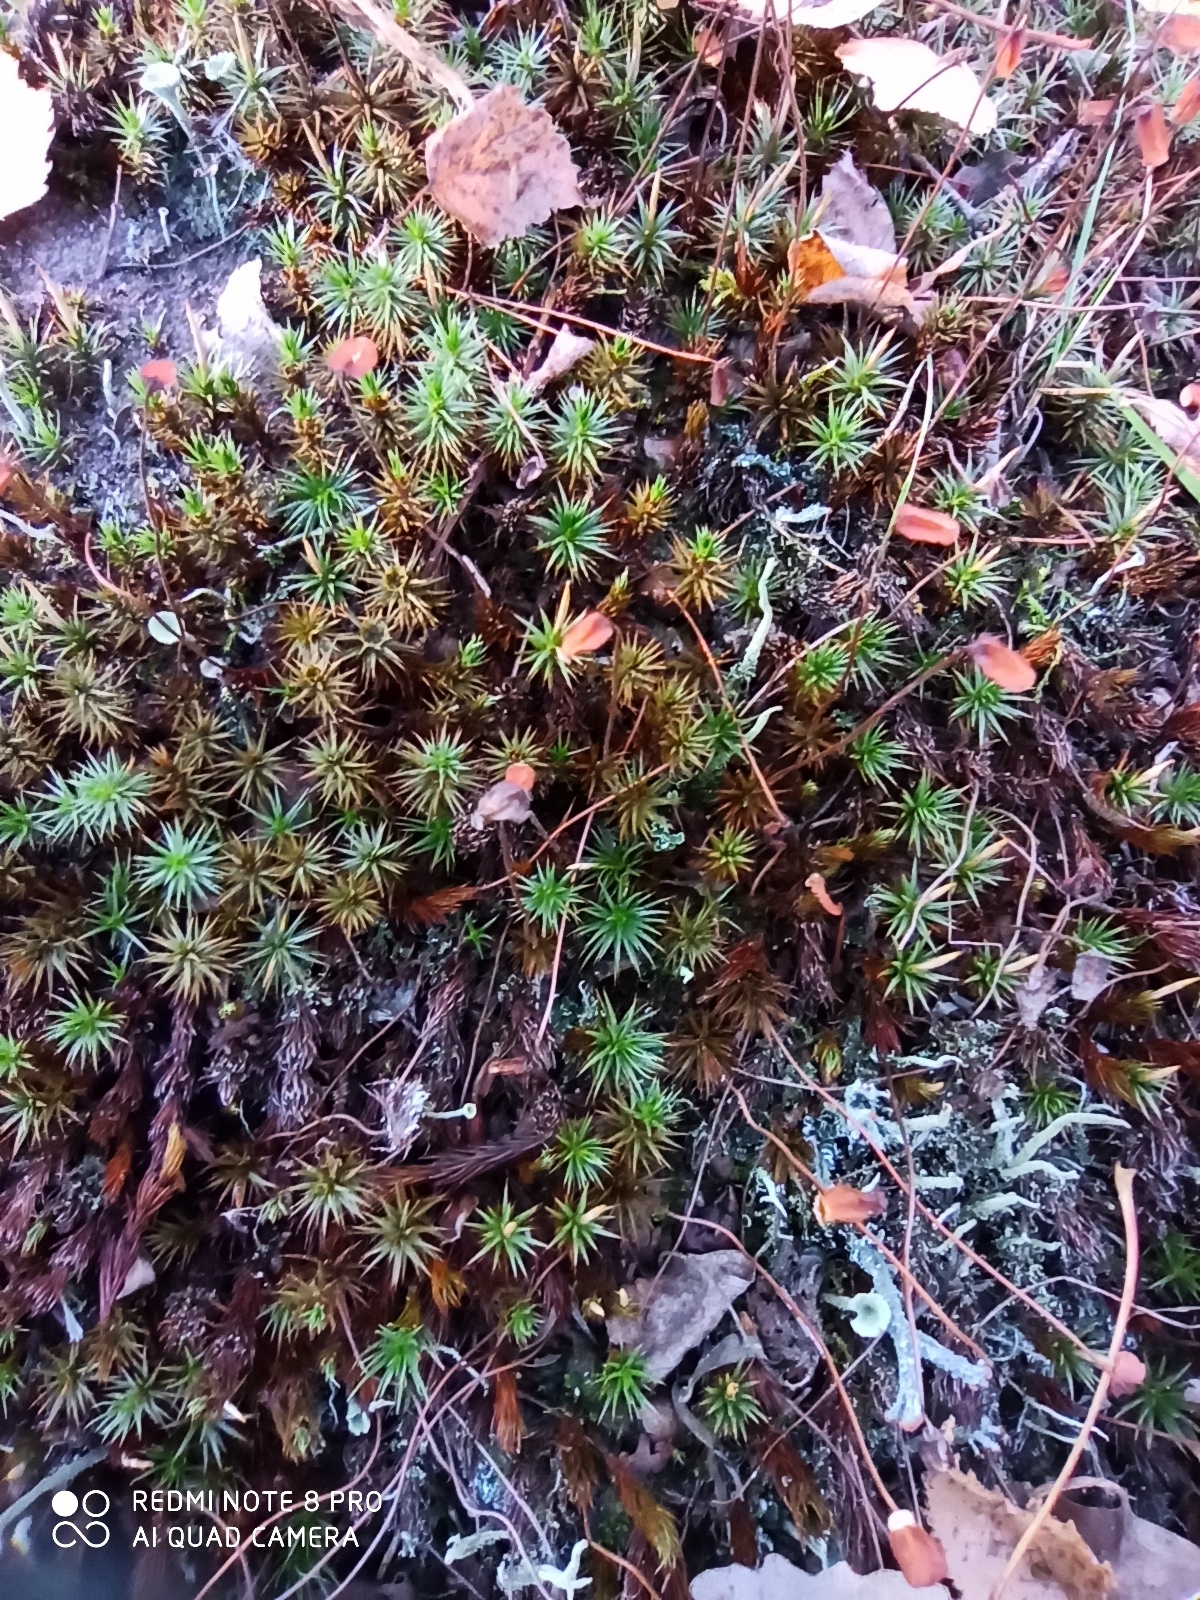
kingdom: Plantae
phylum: Bryophyta
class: Polytrichopsida
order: Polytrichales
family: Polytrichaceae
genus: Polytrichum
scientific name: Polytrichum juniperinum
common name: Juniper haircap moss
